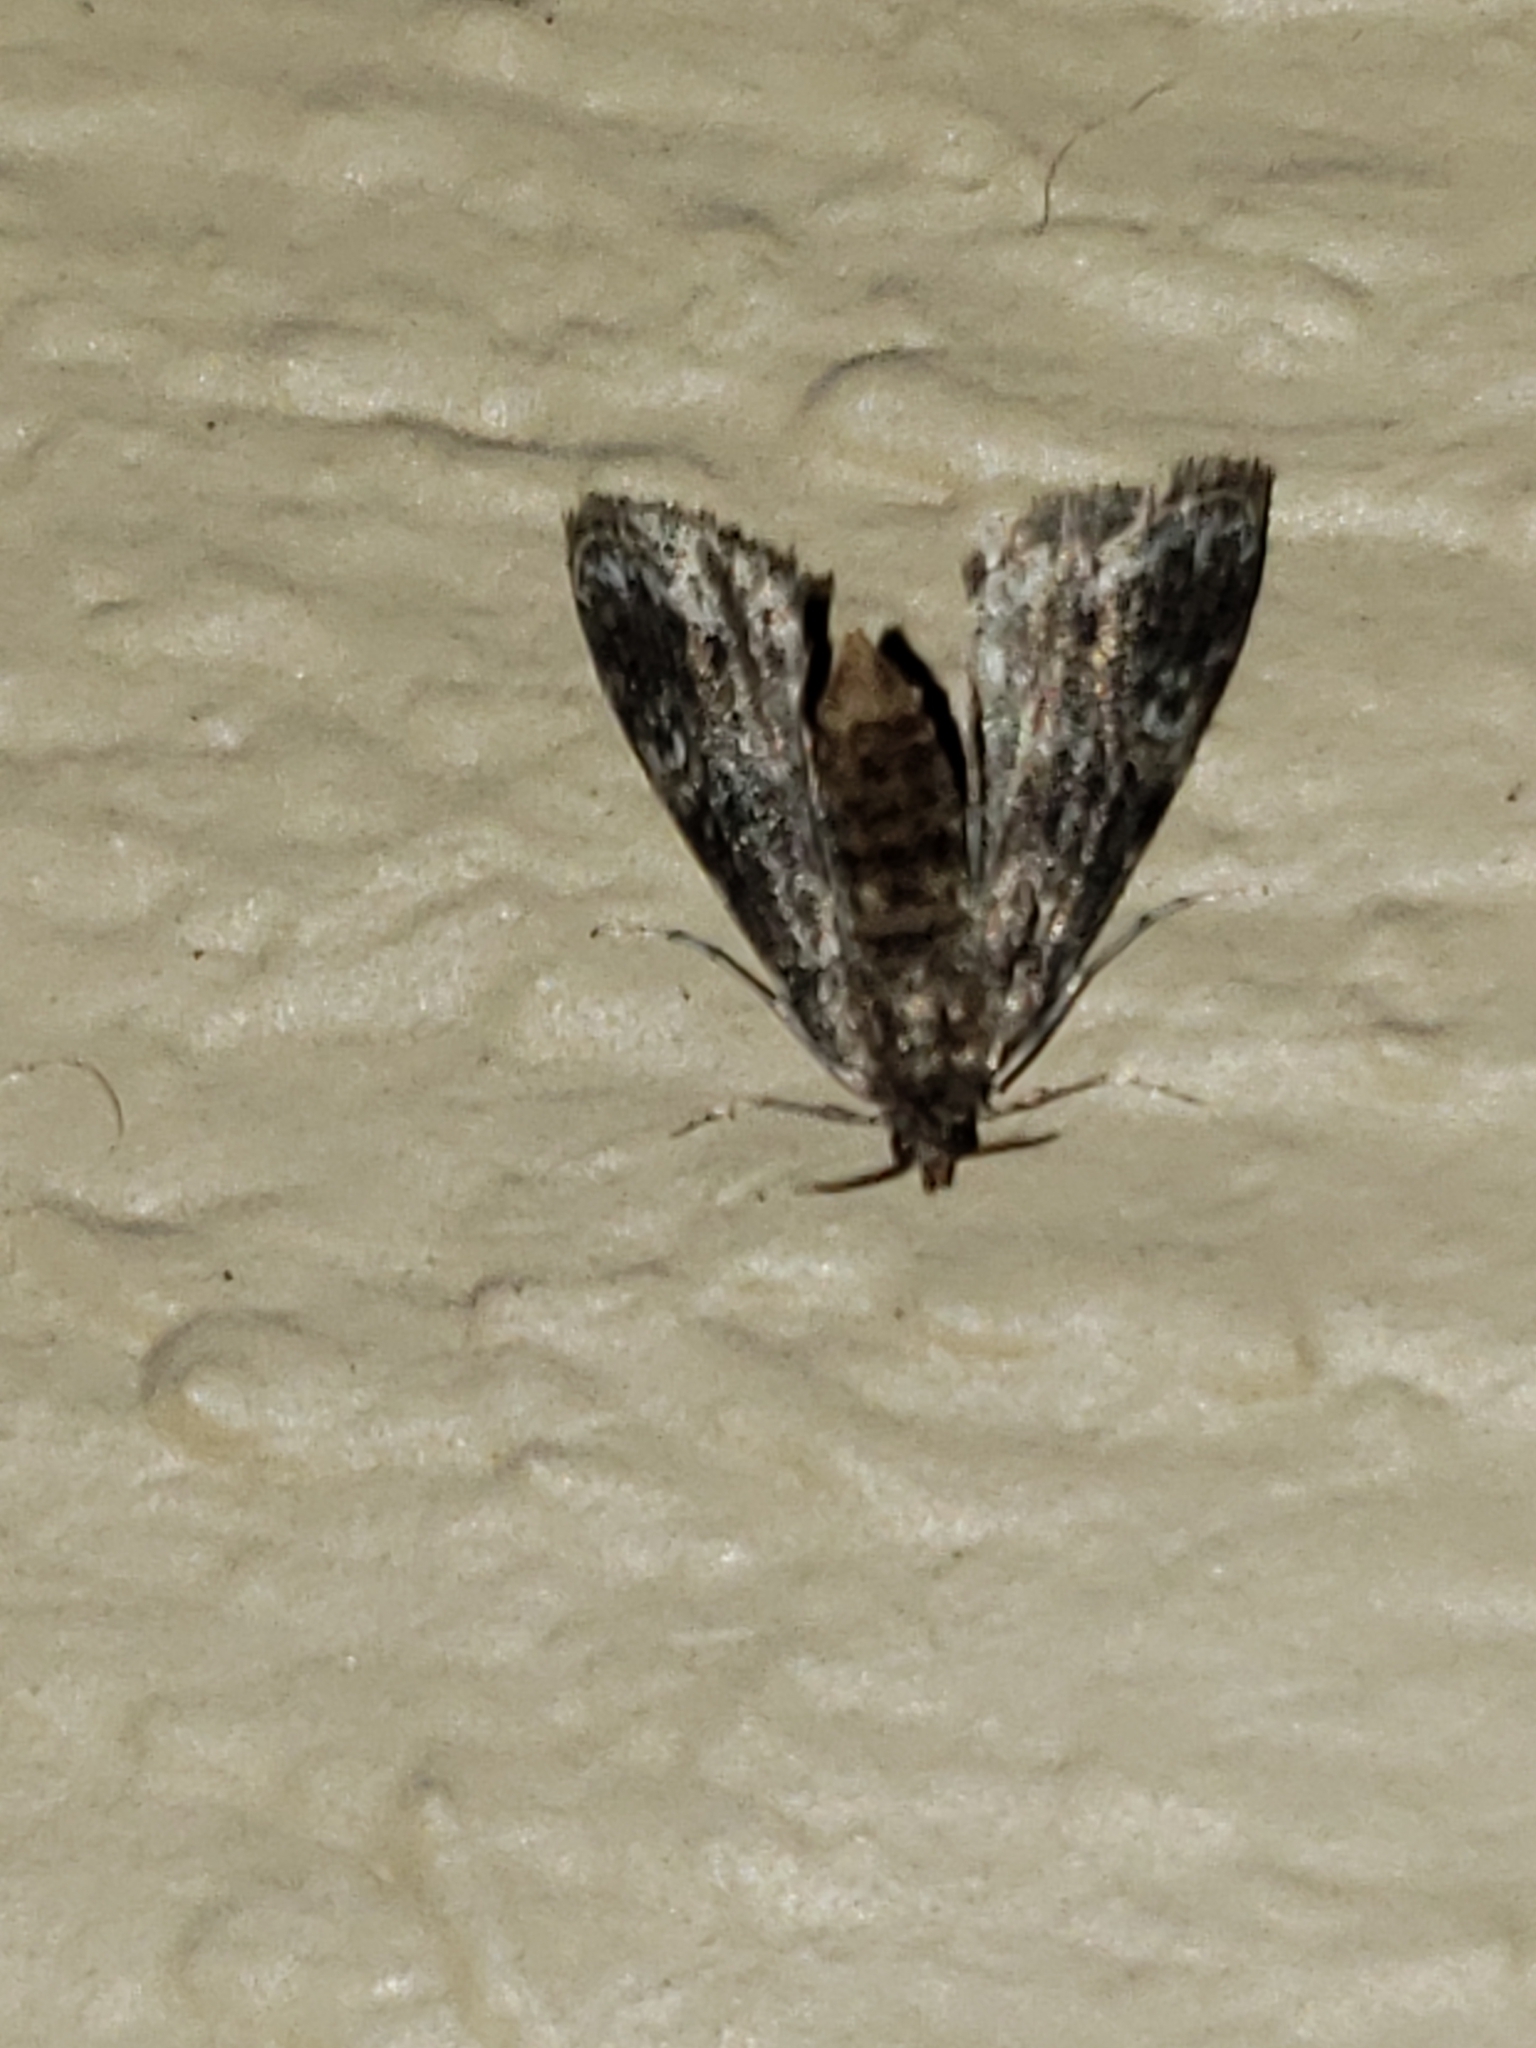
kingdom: Animalia
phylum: Arthropoda
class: Insecta
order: Lepidoptera
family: Crambidae
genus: Elophila
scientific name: Elophila obliteralis
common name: Waterlily leafcutter moth
